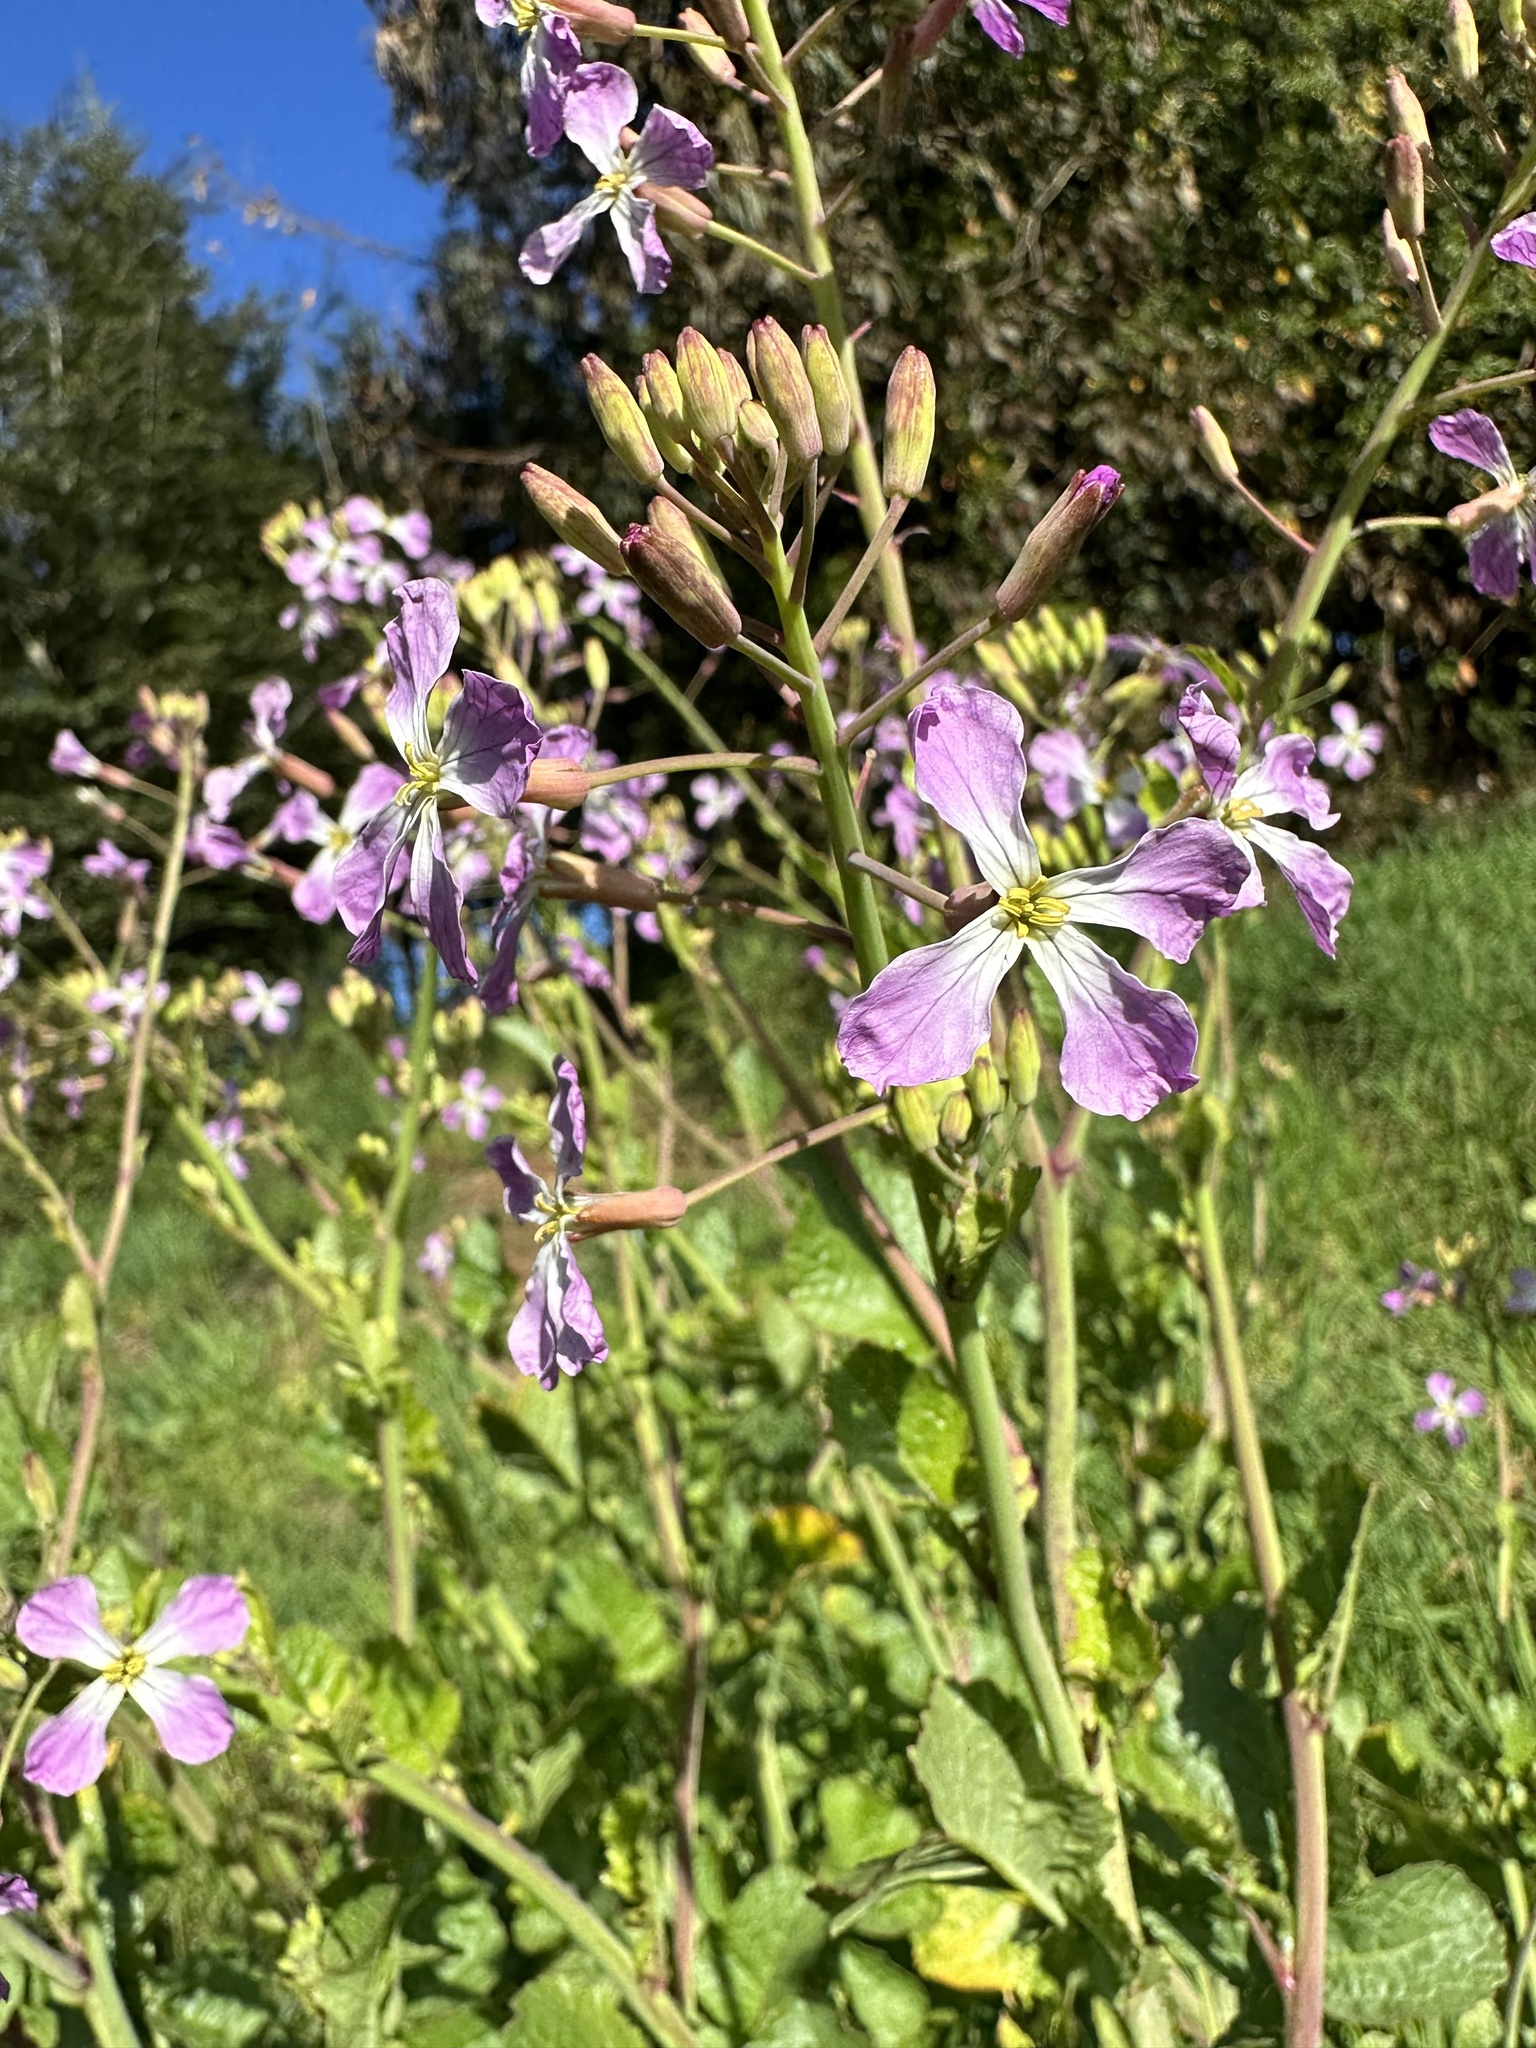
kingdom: Plantae
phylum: Tracheophyta
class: Magnoliopsida
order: Brassicales
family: Brassicaceae
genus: Raphanus
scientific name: Raphanus sativus
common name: Cultivated radish
